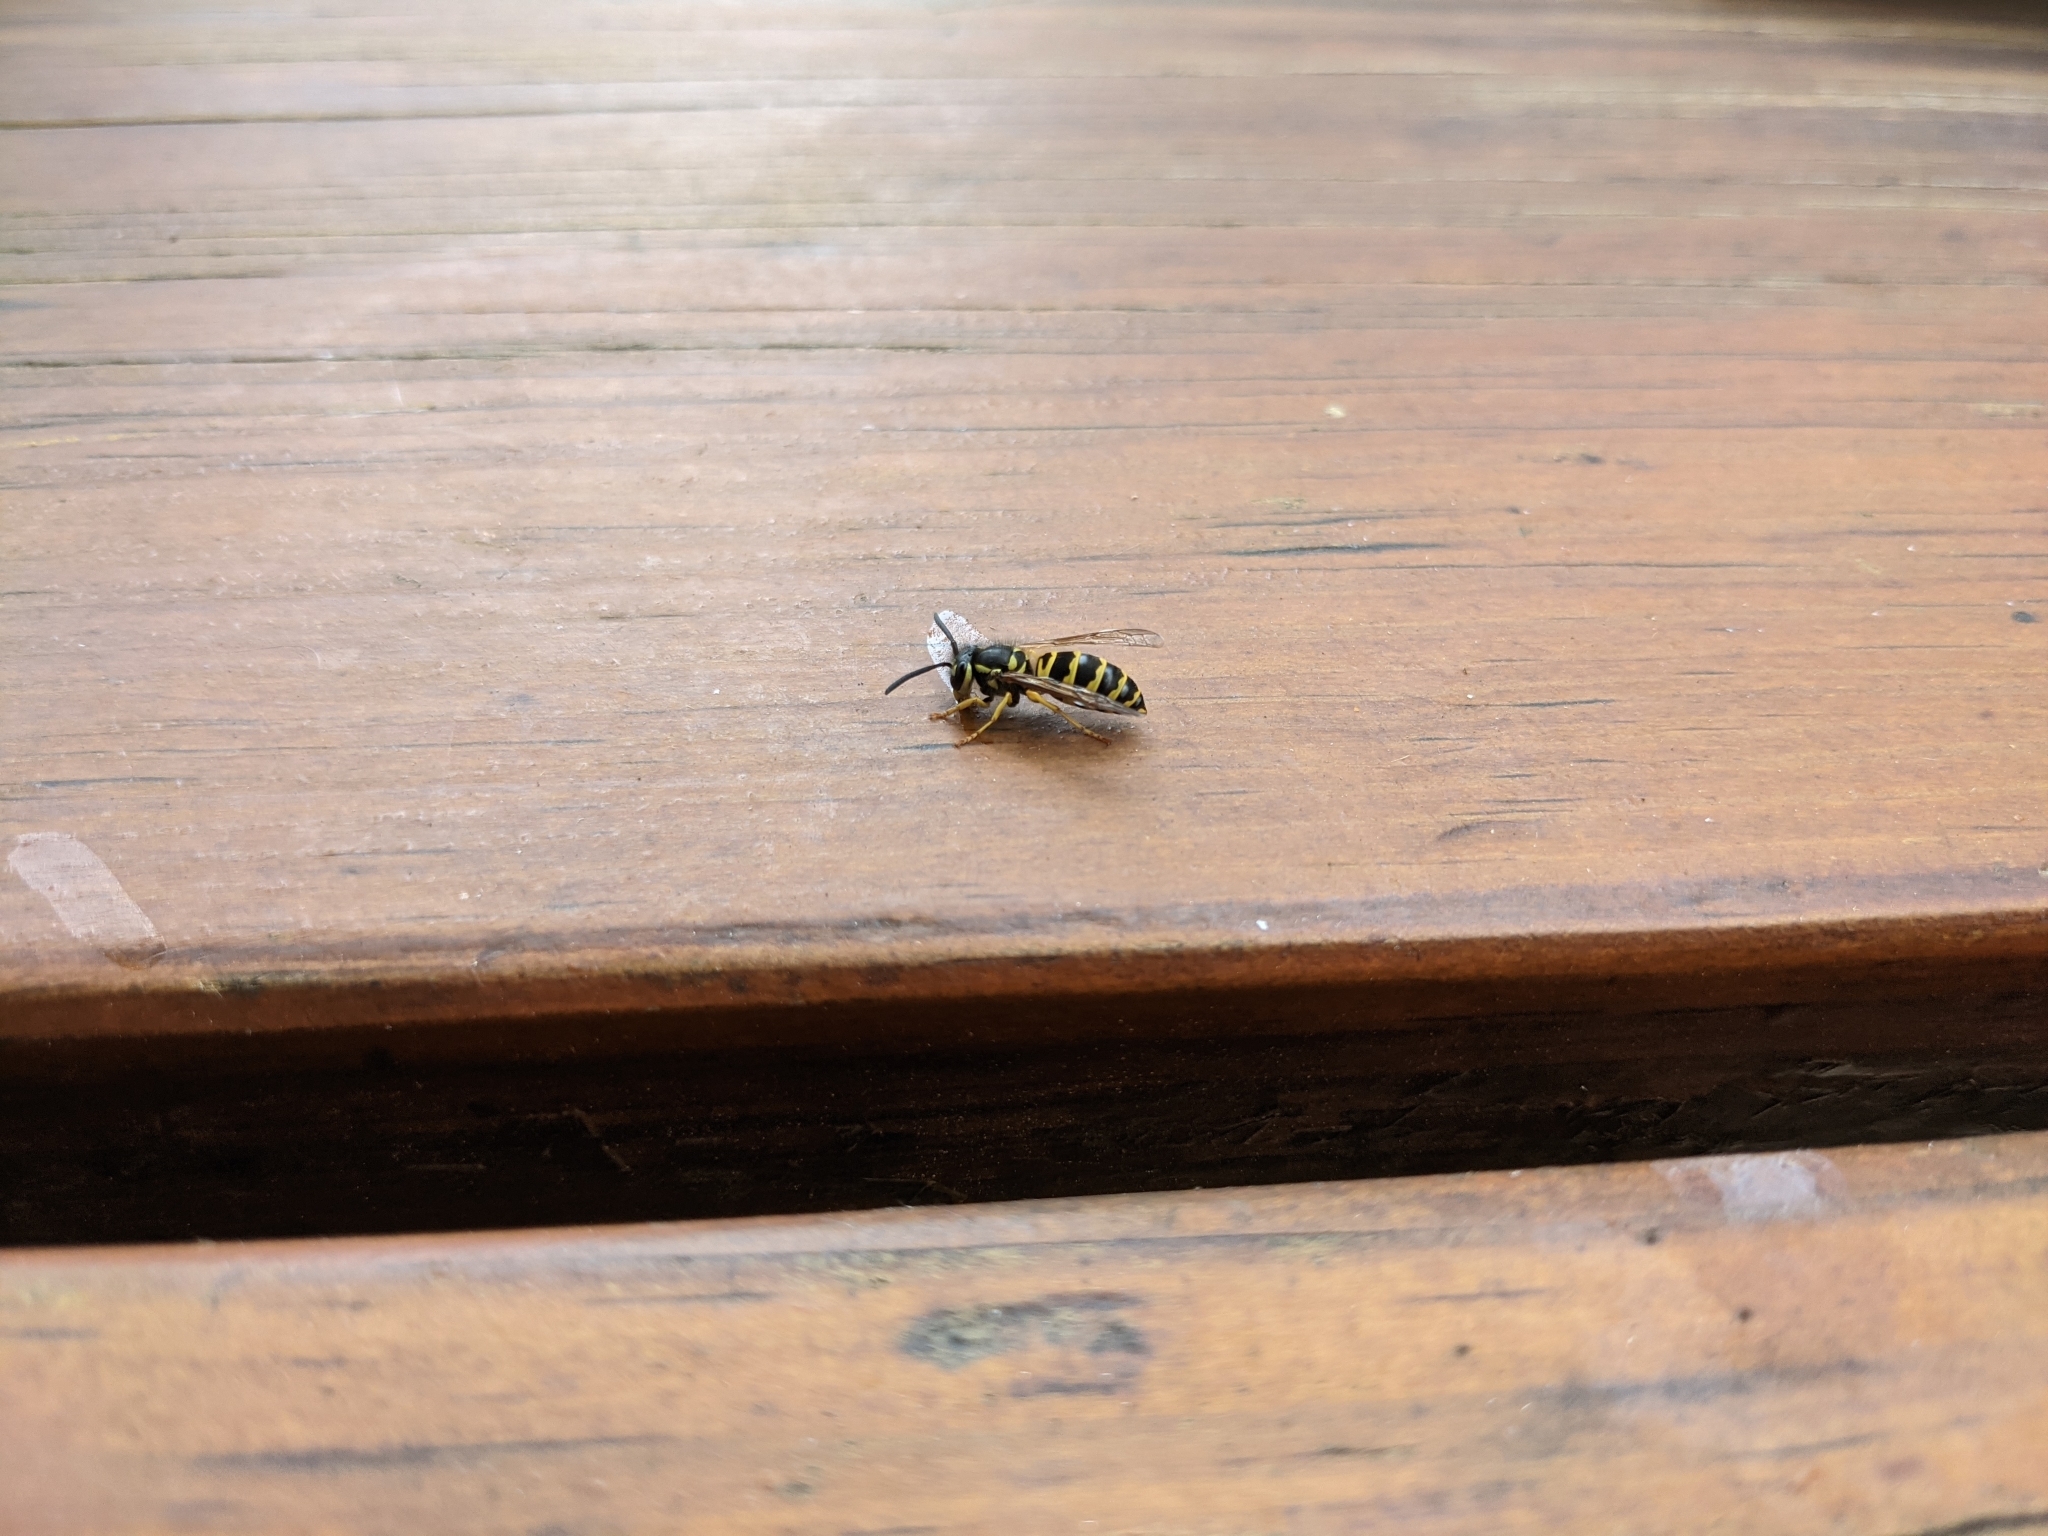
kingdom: Animalia
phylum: Arthropoda
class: Insecta
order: Hymenoptera
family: Vespidae
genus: Vespula
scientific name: Vespula flavopilosa
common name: Downy yellowjacket
